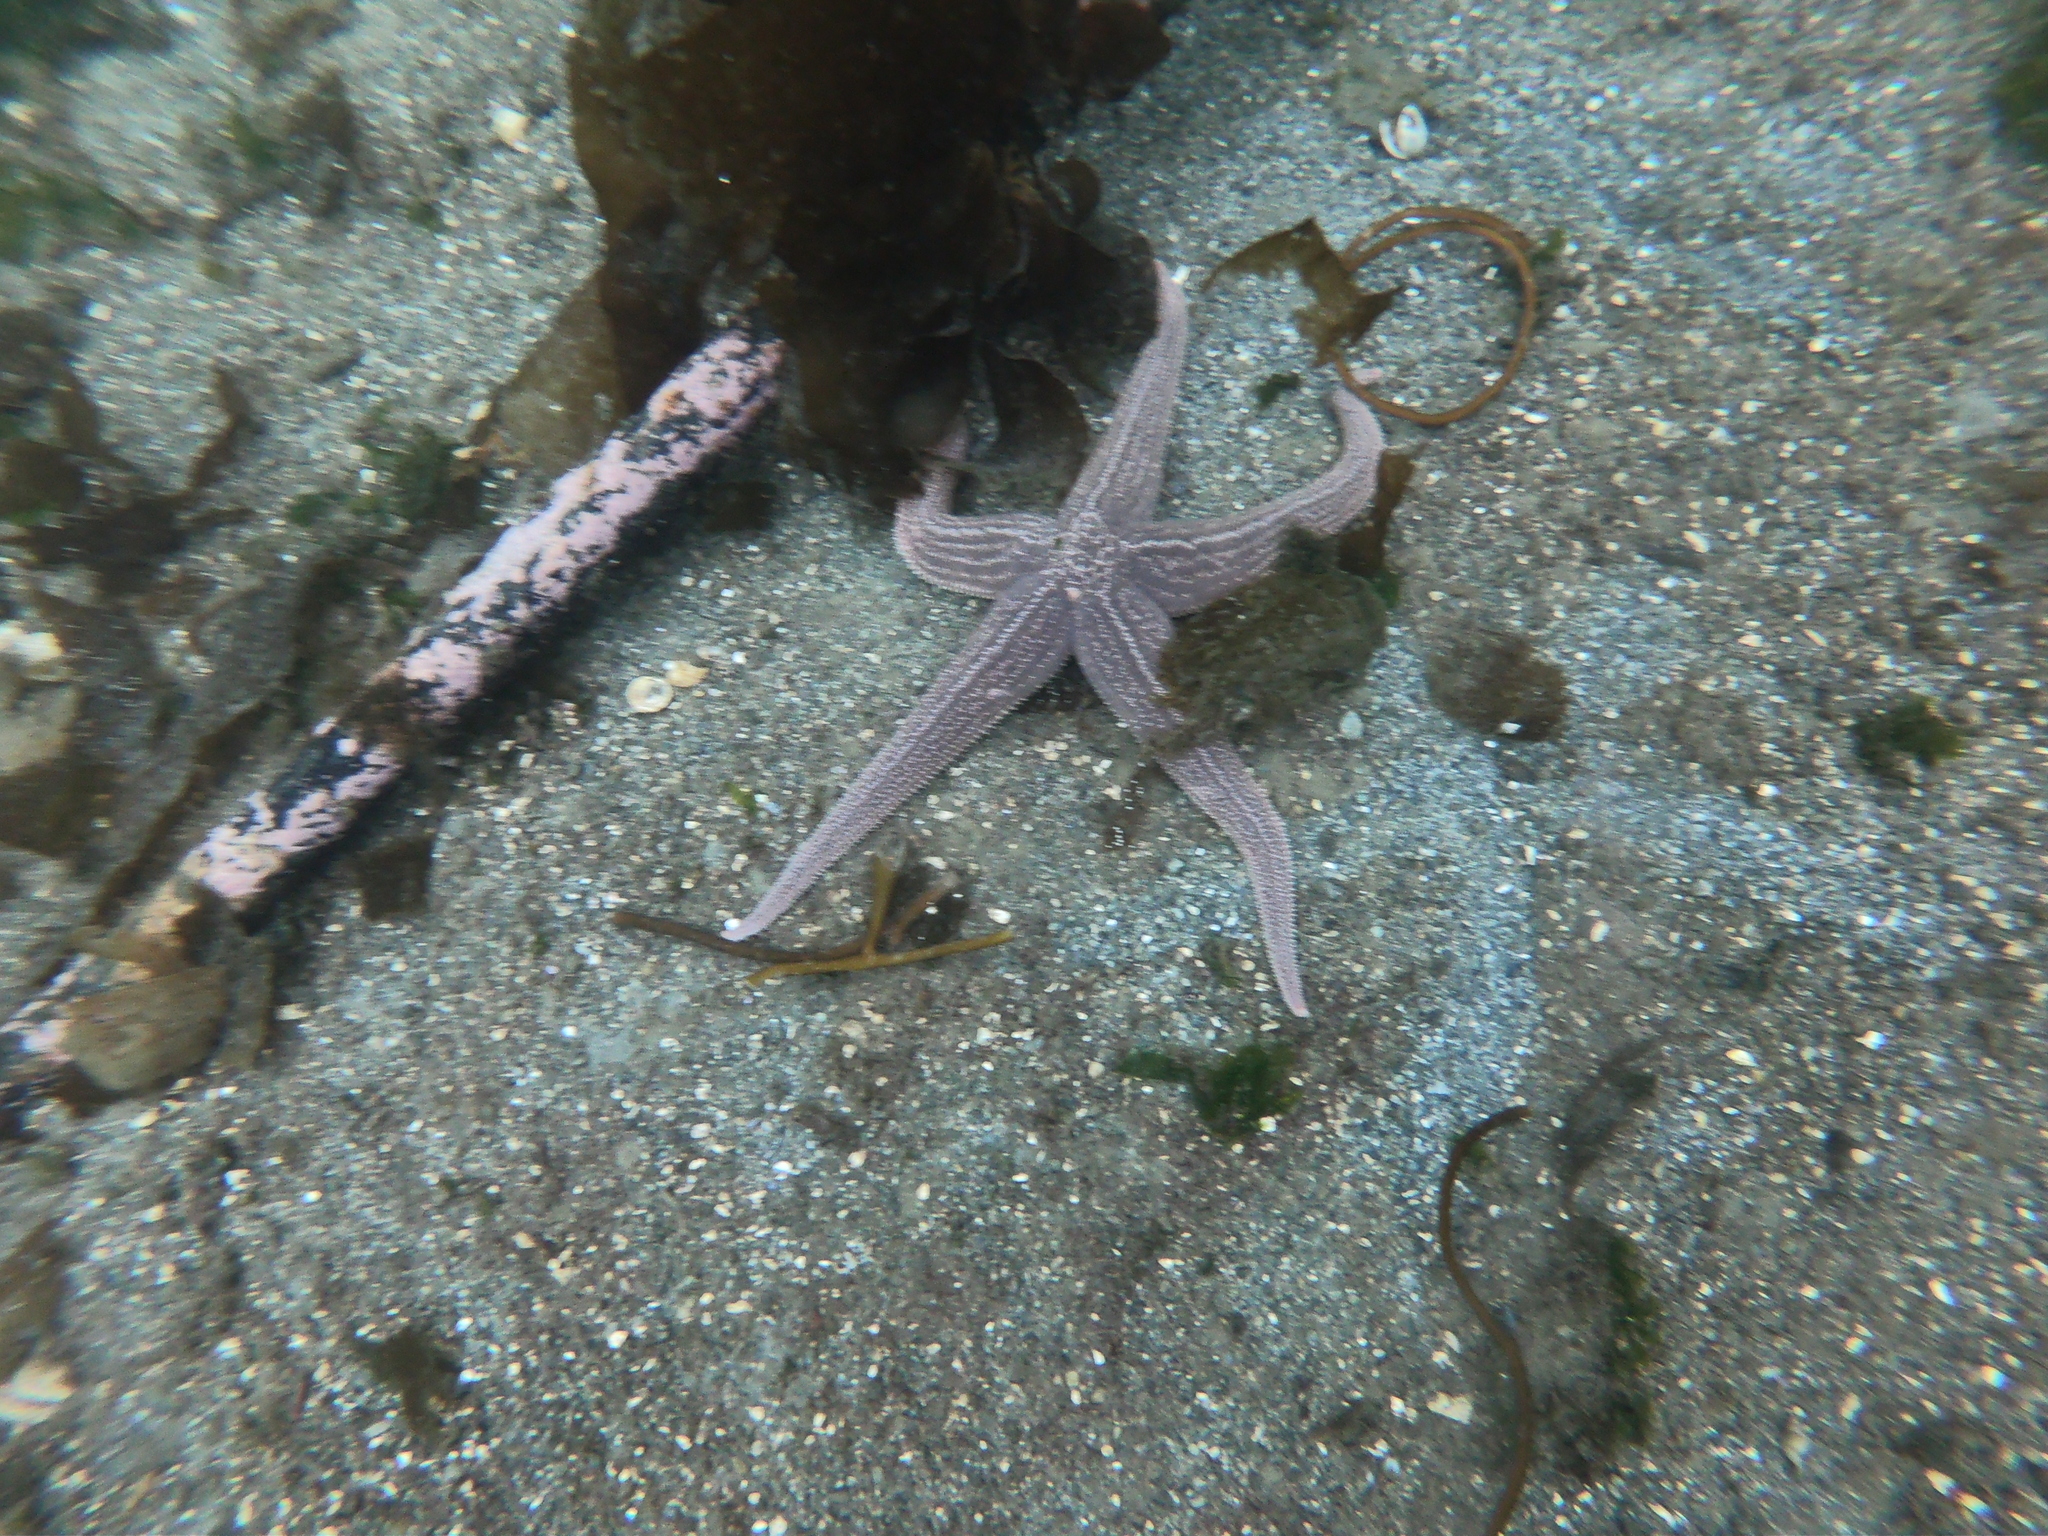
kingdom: Animalia
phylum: Echinodermata
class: Asteroidea
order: Forcipulatida
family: Stichasteridae
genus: Cosmasterias
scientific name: Cosmasterias lurida
